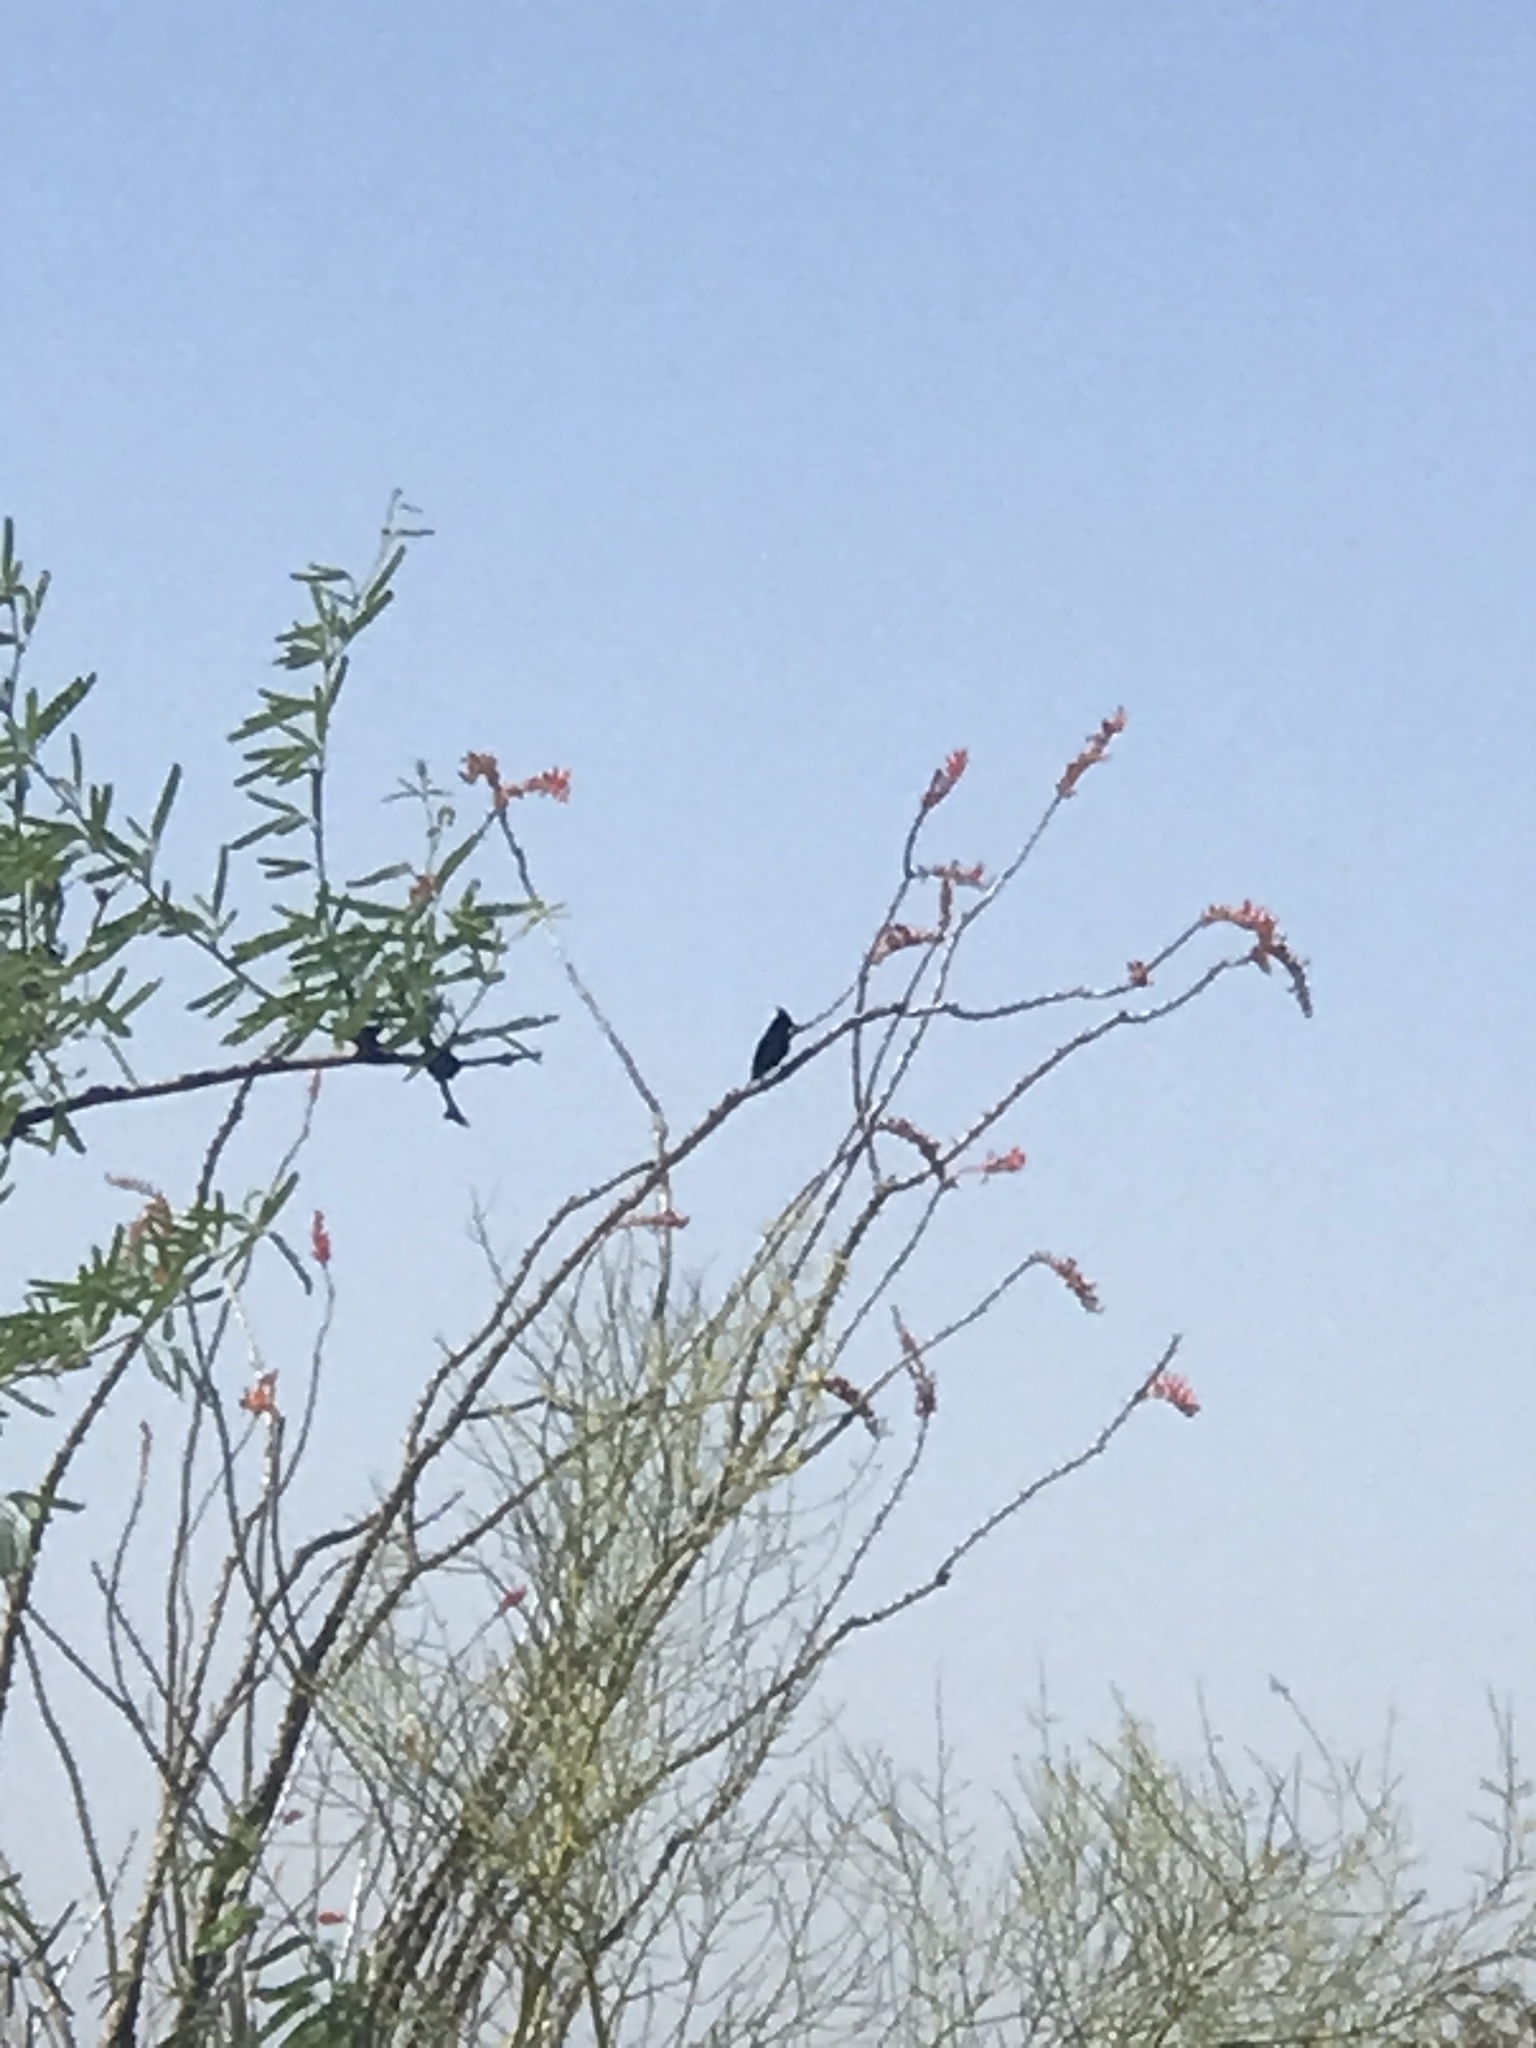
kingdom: Animalia
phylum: Chordata
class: Aves
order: Passeriformes
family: Ptilogonatidae
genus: Phainopepla
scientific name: Phainopepla nitens
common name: Phainopepla
